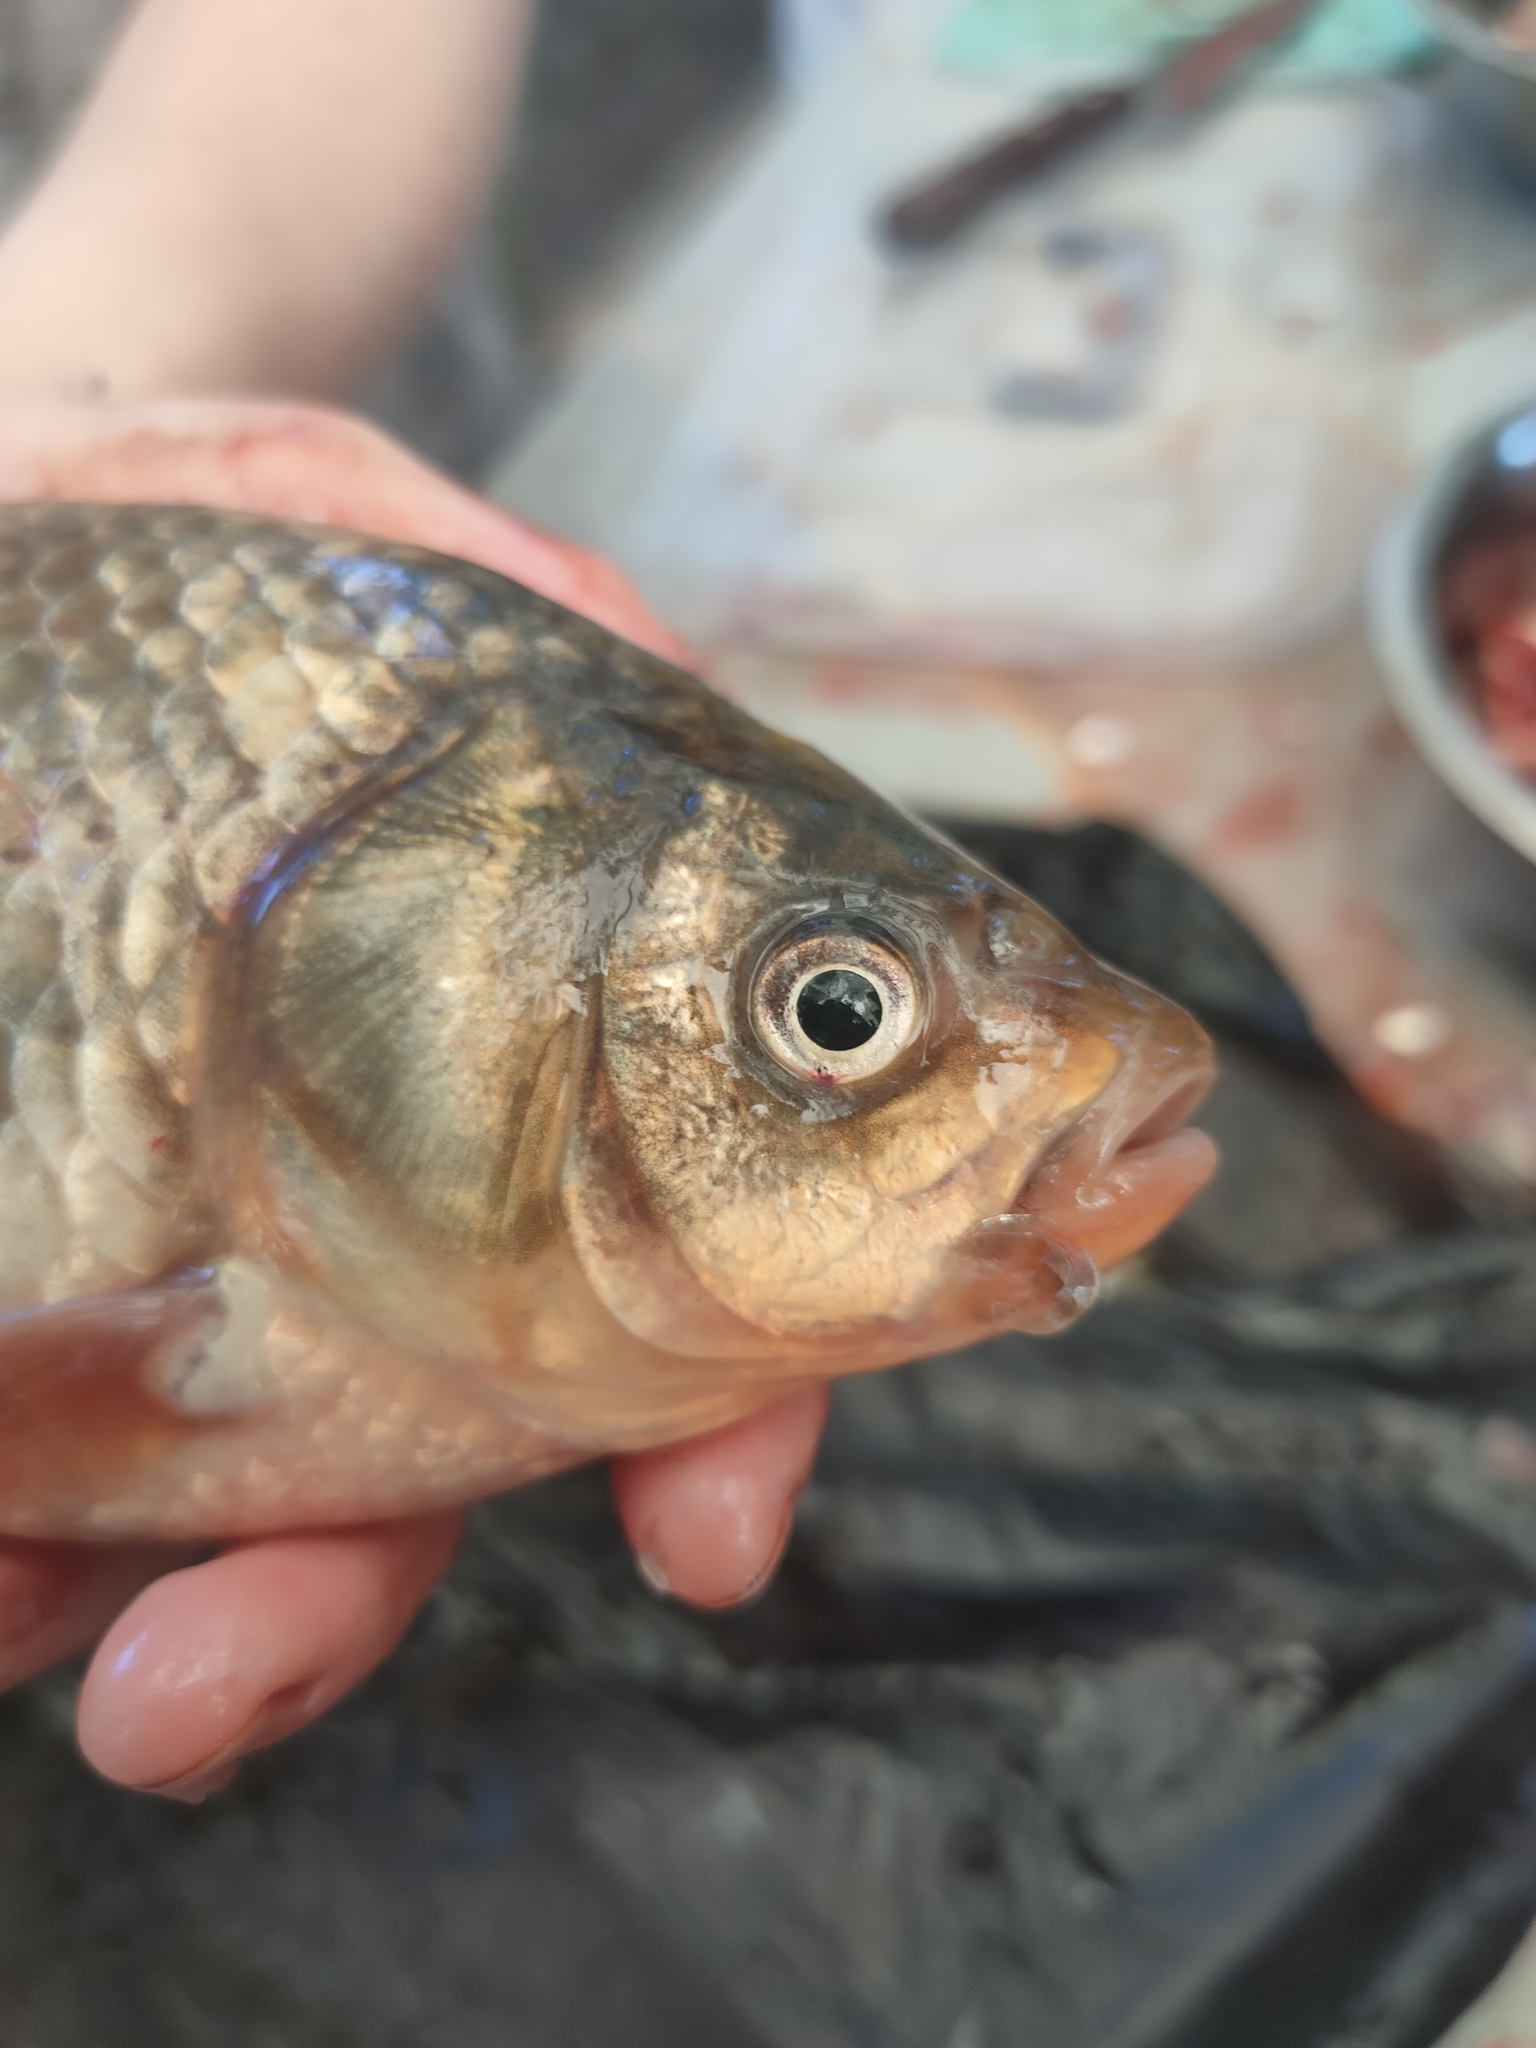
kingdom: Animalia
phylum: Chordata
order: Cypriniformes
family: Cyprinidae
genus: Carassius
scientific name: Carassius gibelio
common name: Prussian carp
